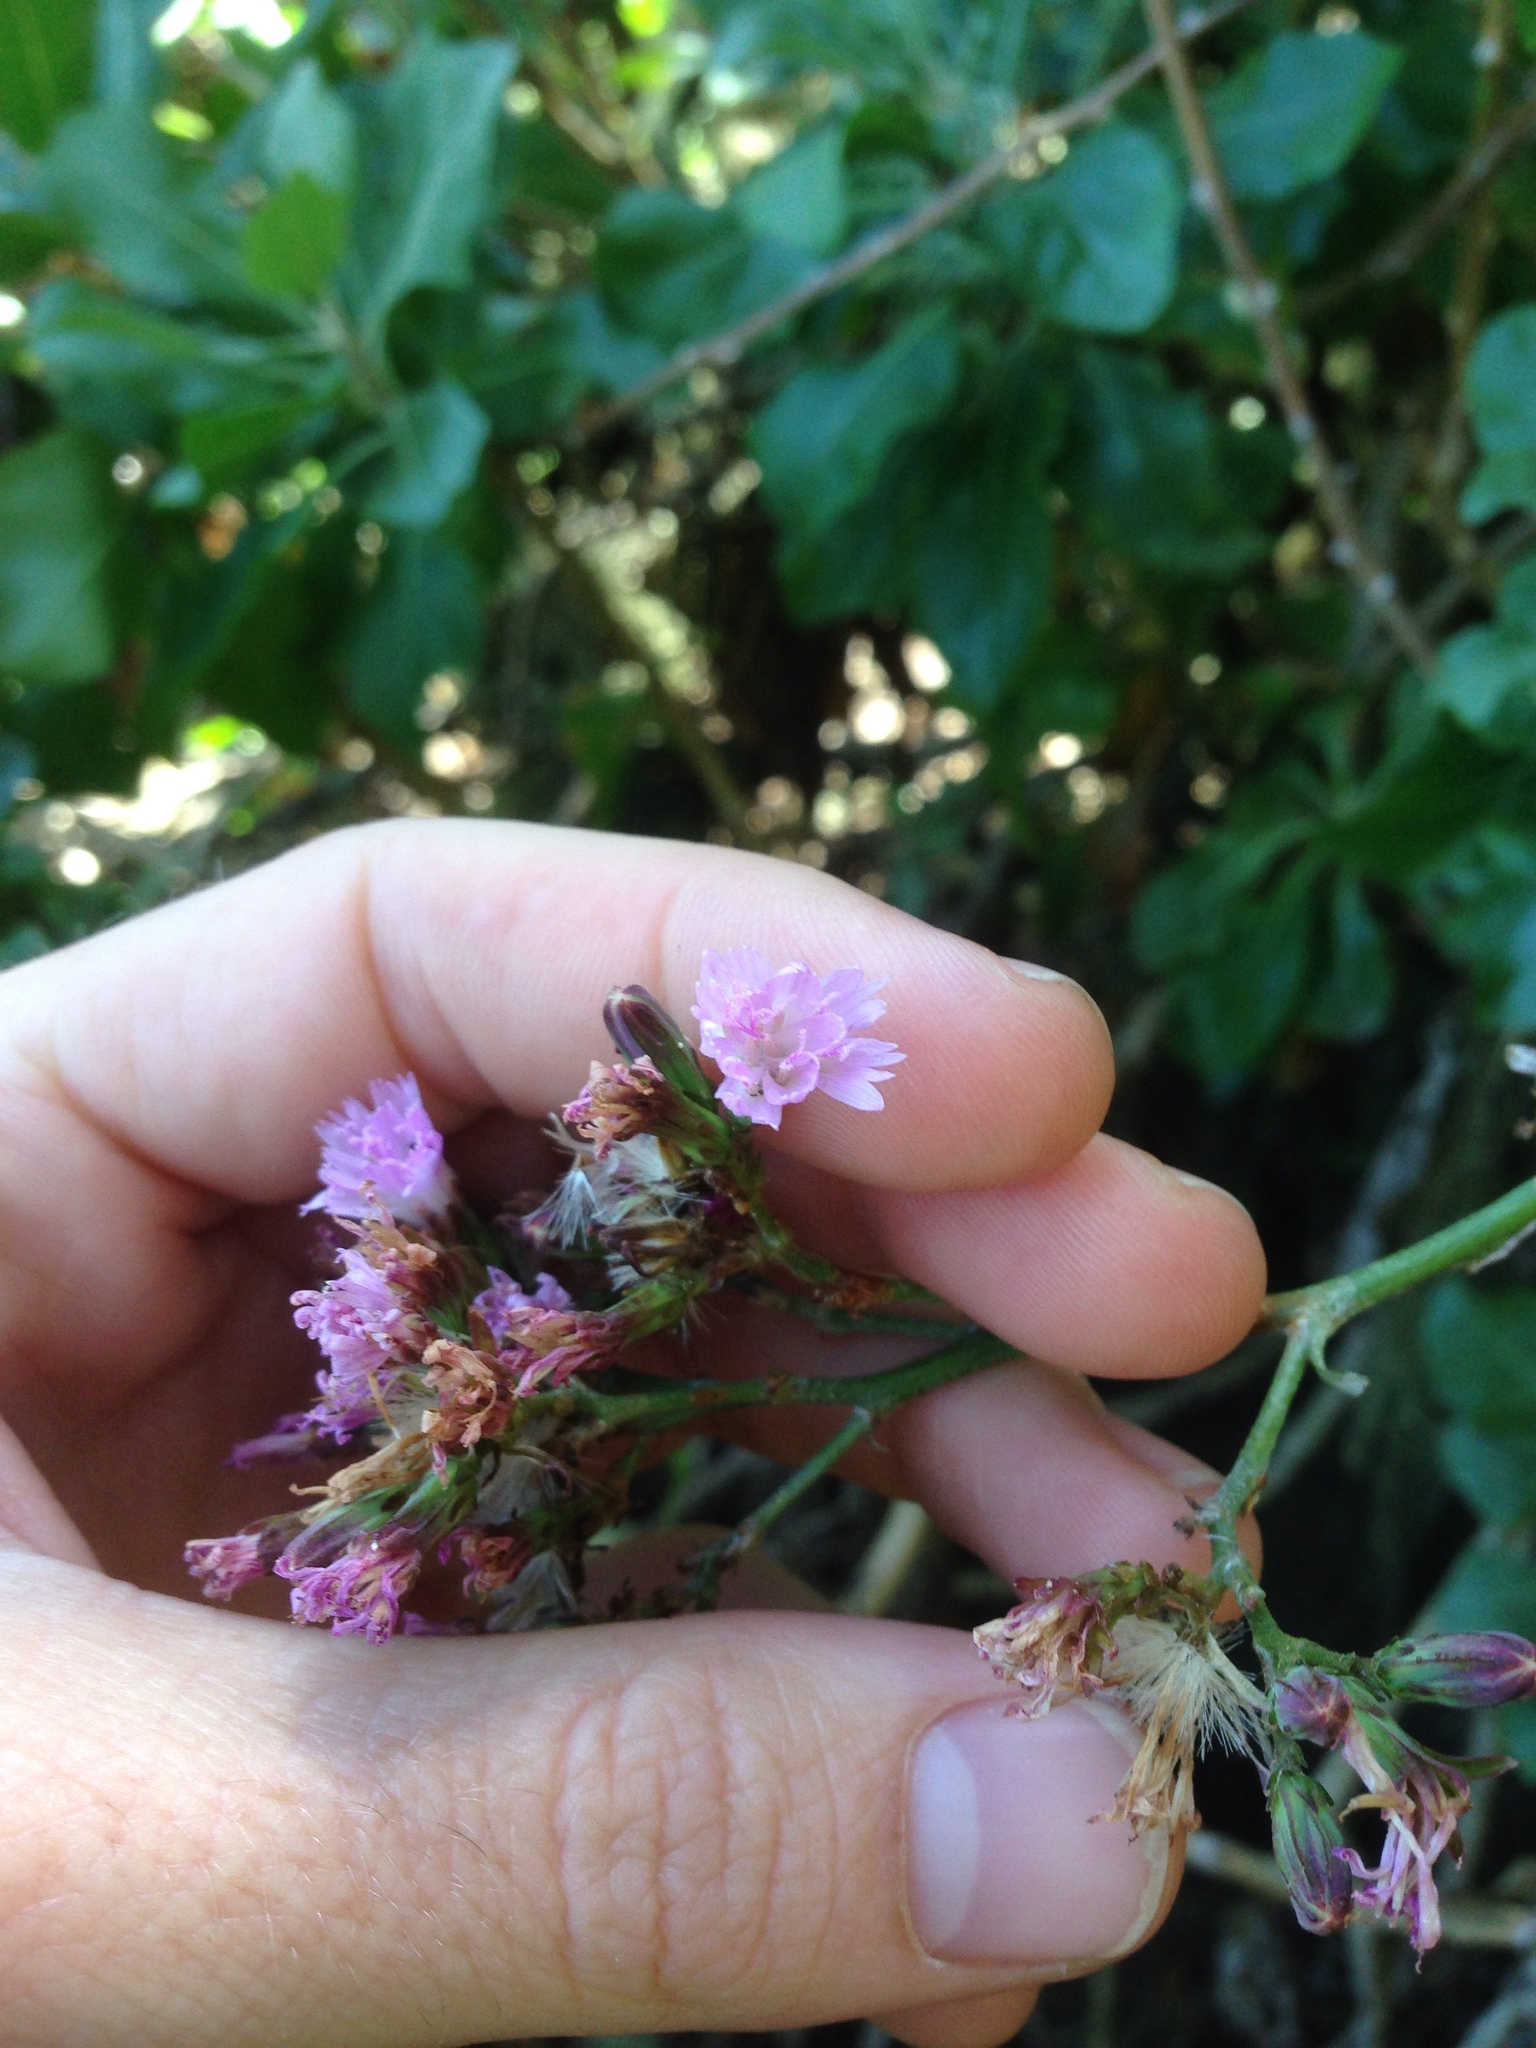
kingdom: Plantae
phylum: Tracheophyta
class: Magnoliopsida
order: Asterales
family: Asteraceae
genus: Munzothamnus
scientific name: Munzothamnus blairii
